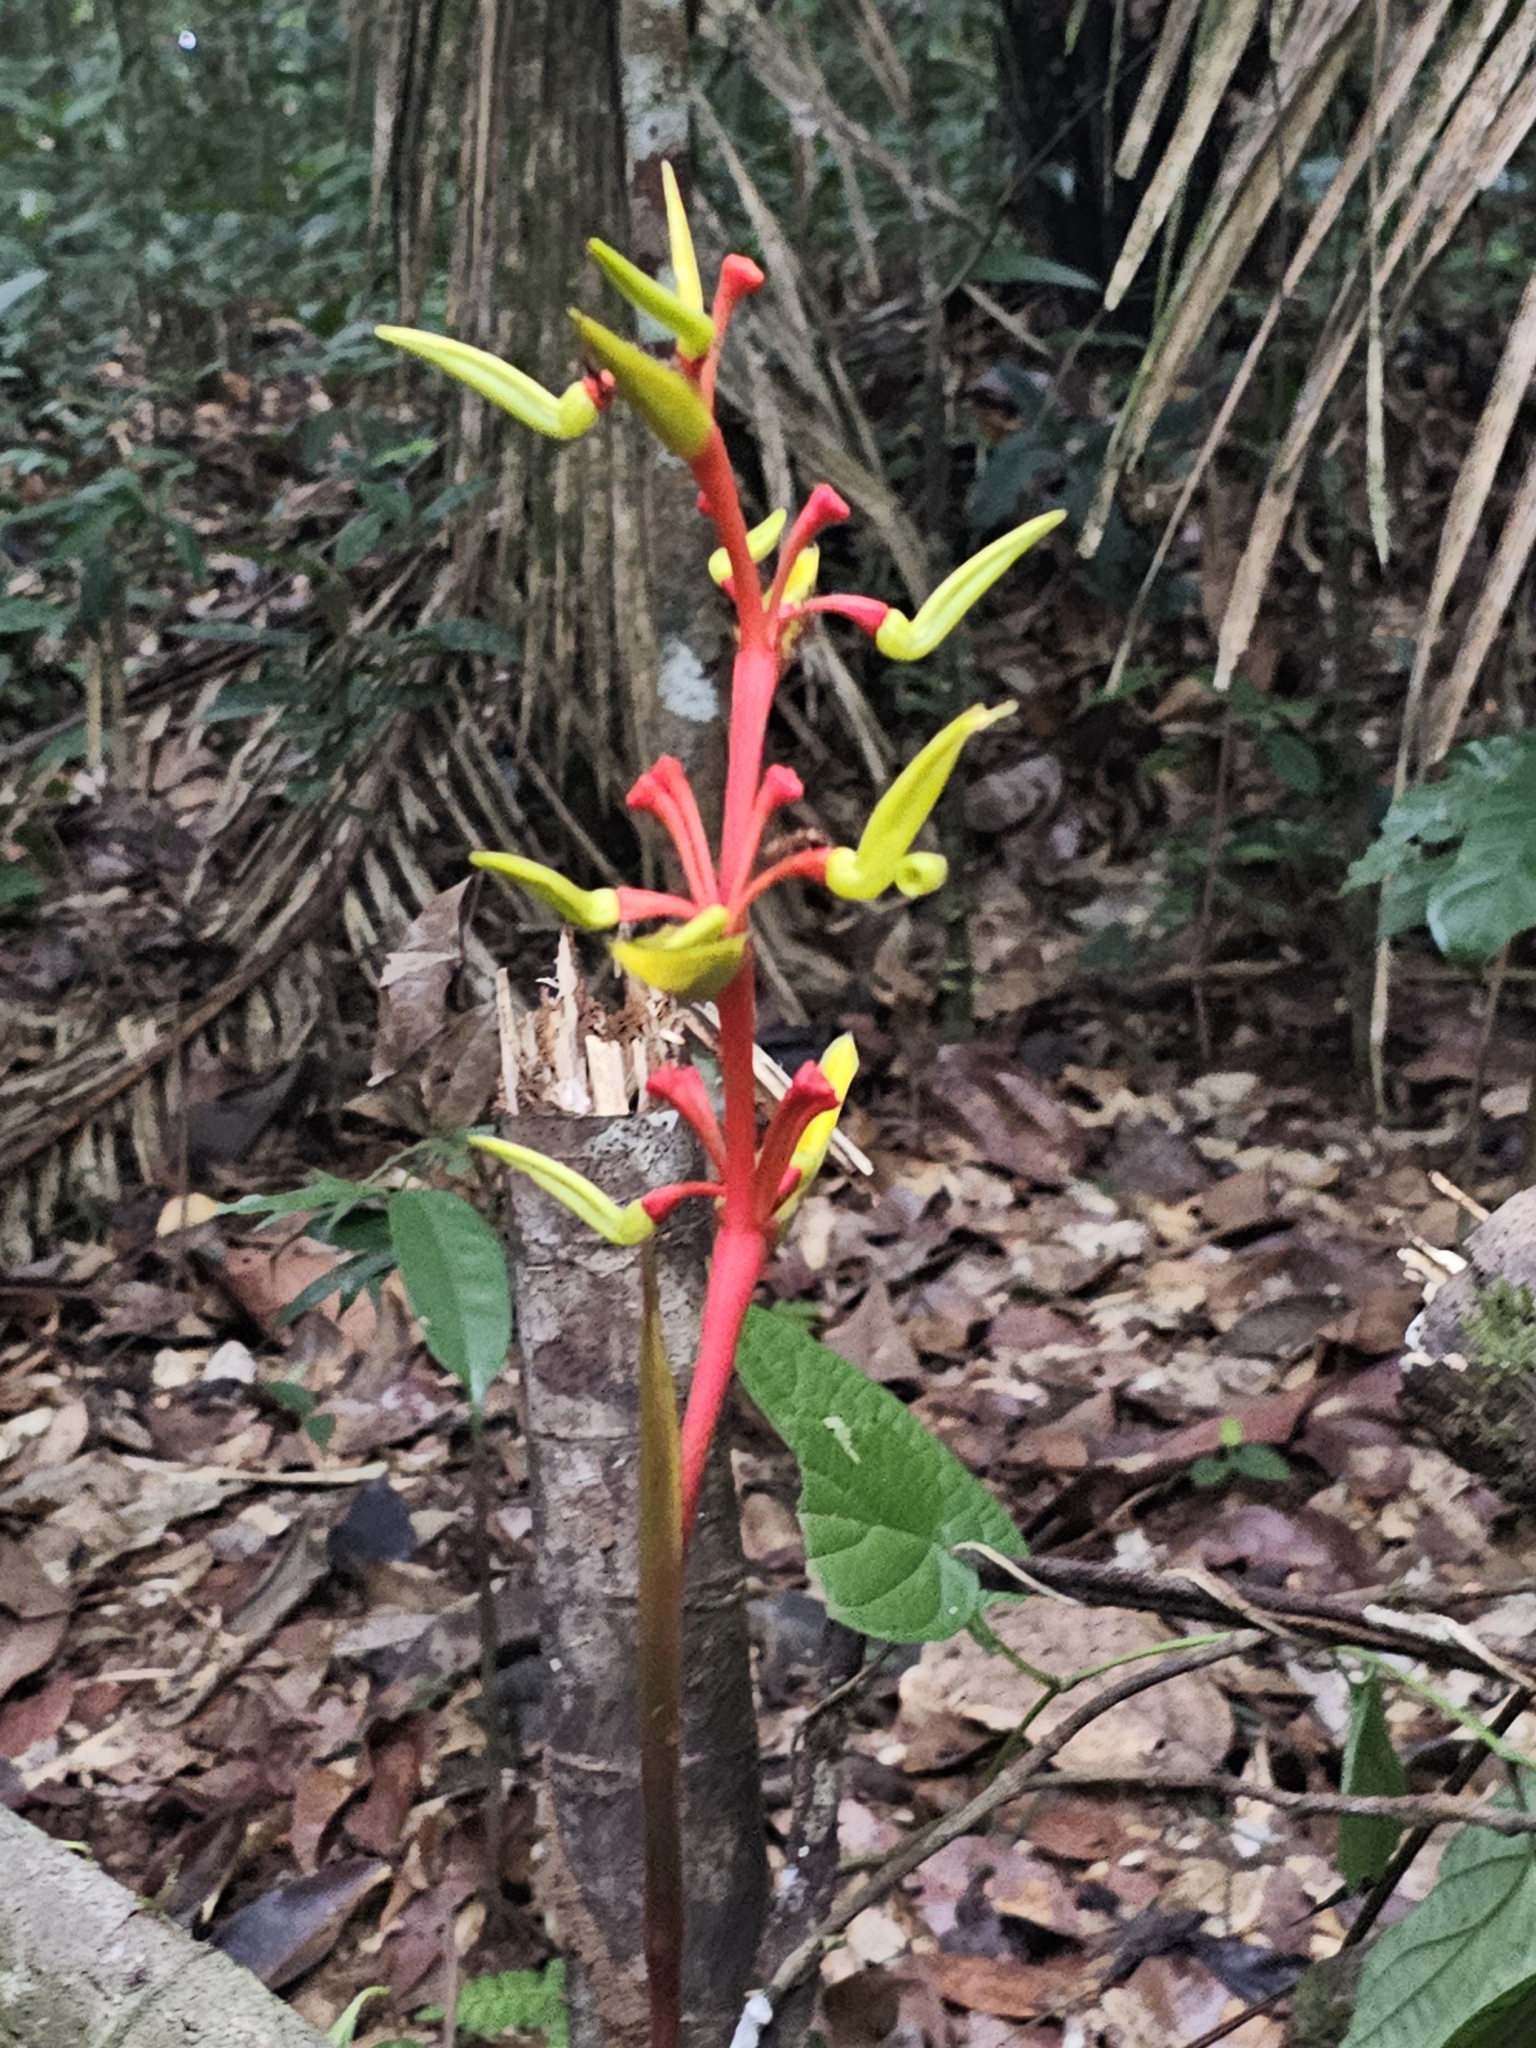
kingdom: Plantae
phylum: Tracheophyta
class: Liliopsida
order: Zingiberales
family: Heliconiaceae
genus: Heliconia
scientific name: Heliconia richardiana
